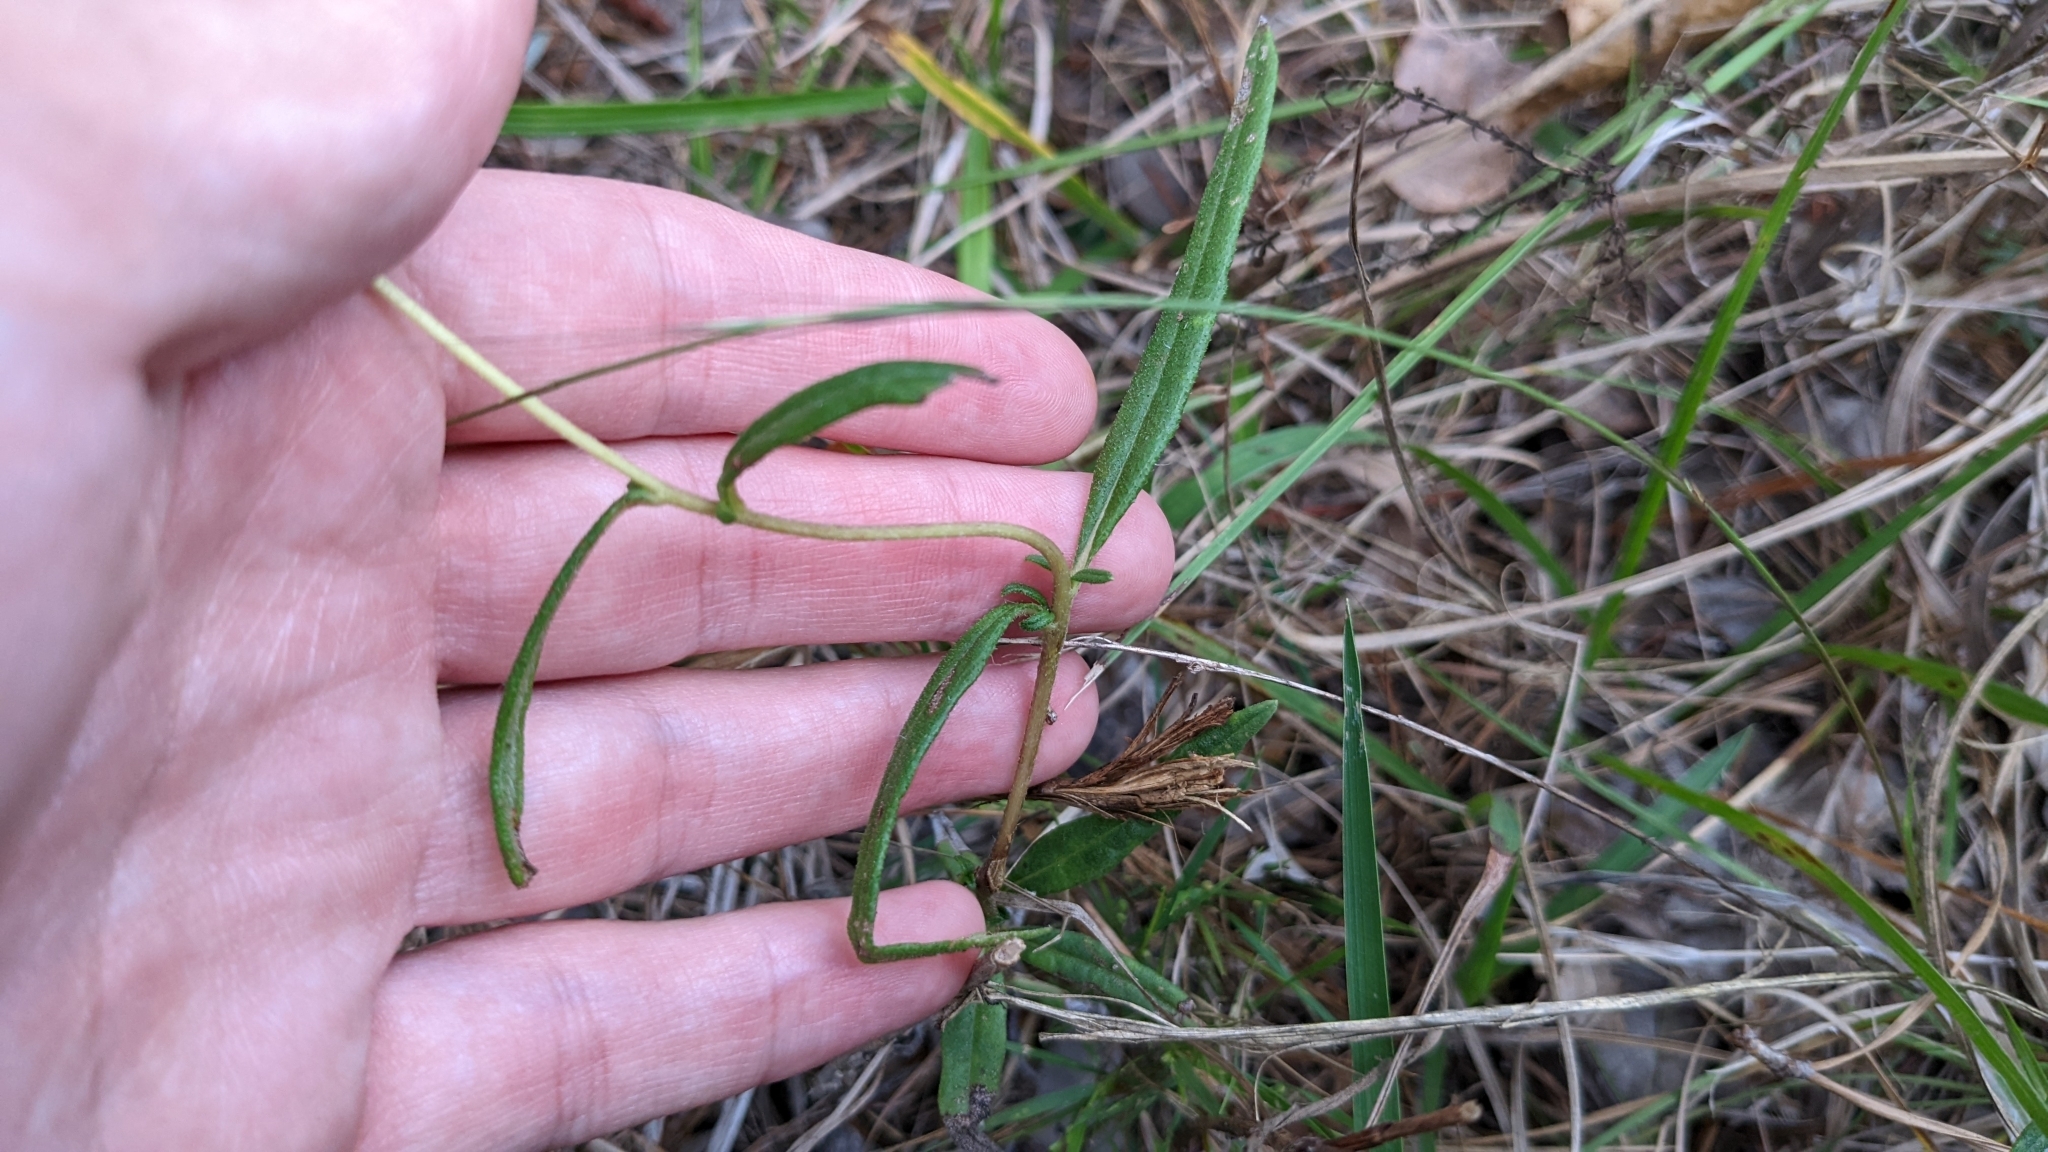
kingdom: Plantae
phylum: Tracheophyta
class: Magnoliopsida
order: Asterales
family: Asteraceae
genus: Helianthus
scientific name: Helianthus angustifolius
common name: Swamp sunflower
